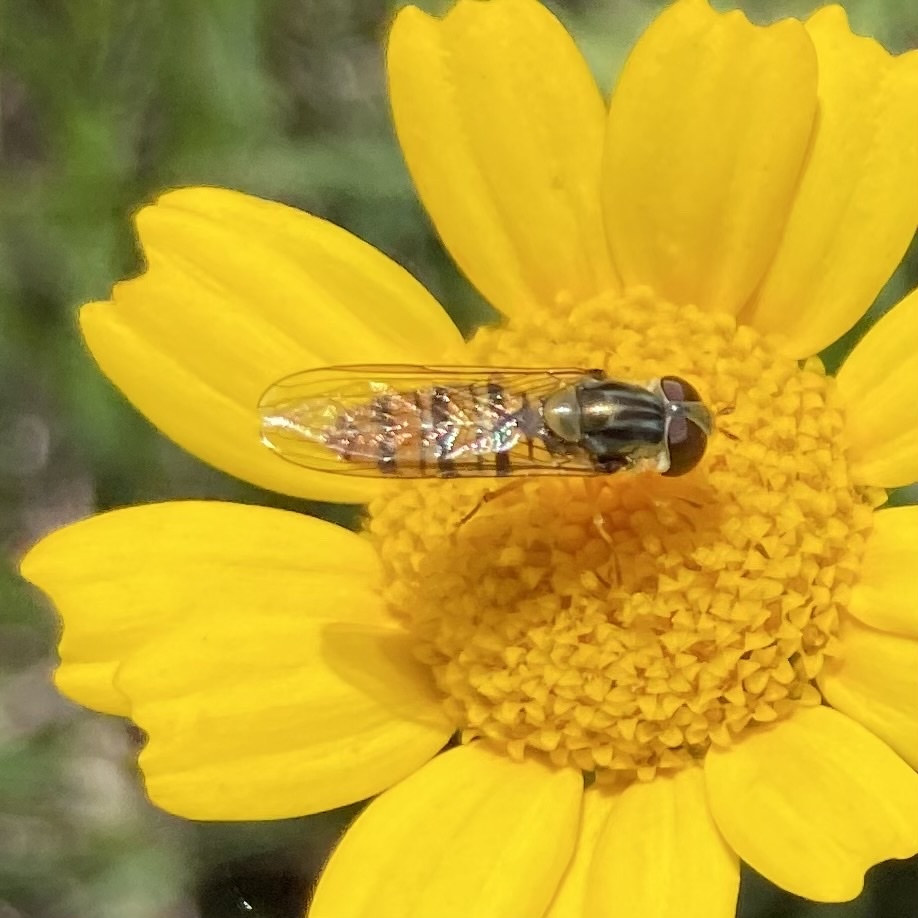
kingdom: Animalia
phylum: Arthropoda
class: Insecta
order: Diptera
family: Syrphidae
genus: Episyrphus
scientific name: Episyrphus balteatus
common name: Marmalade hoverfly
